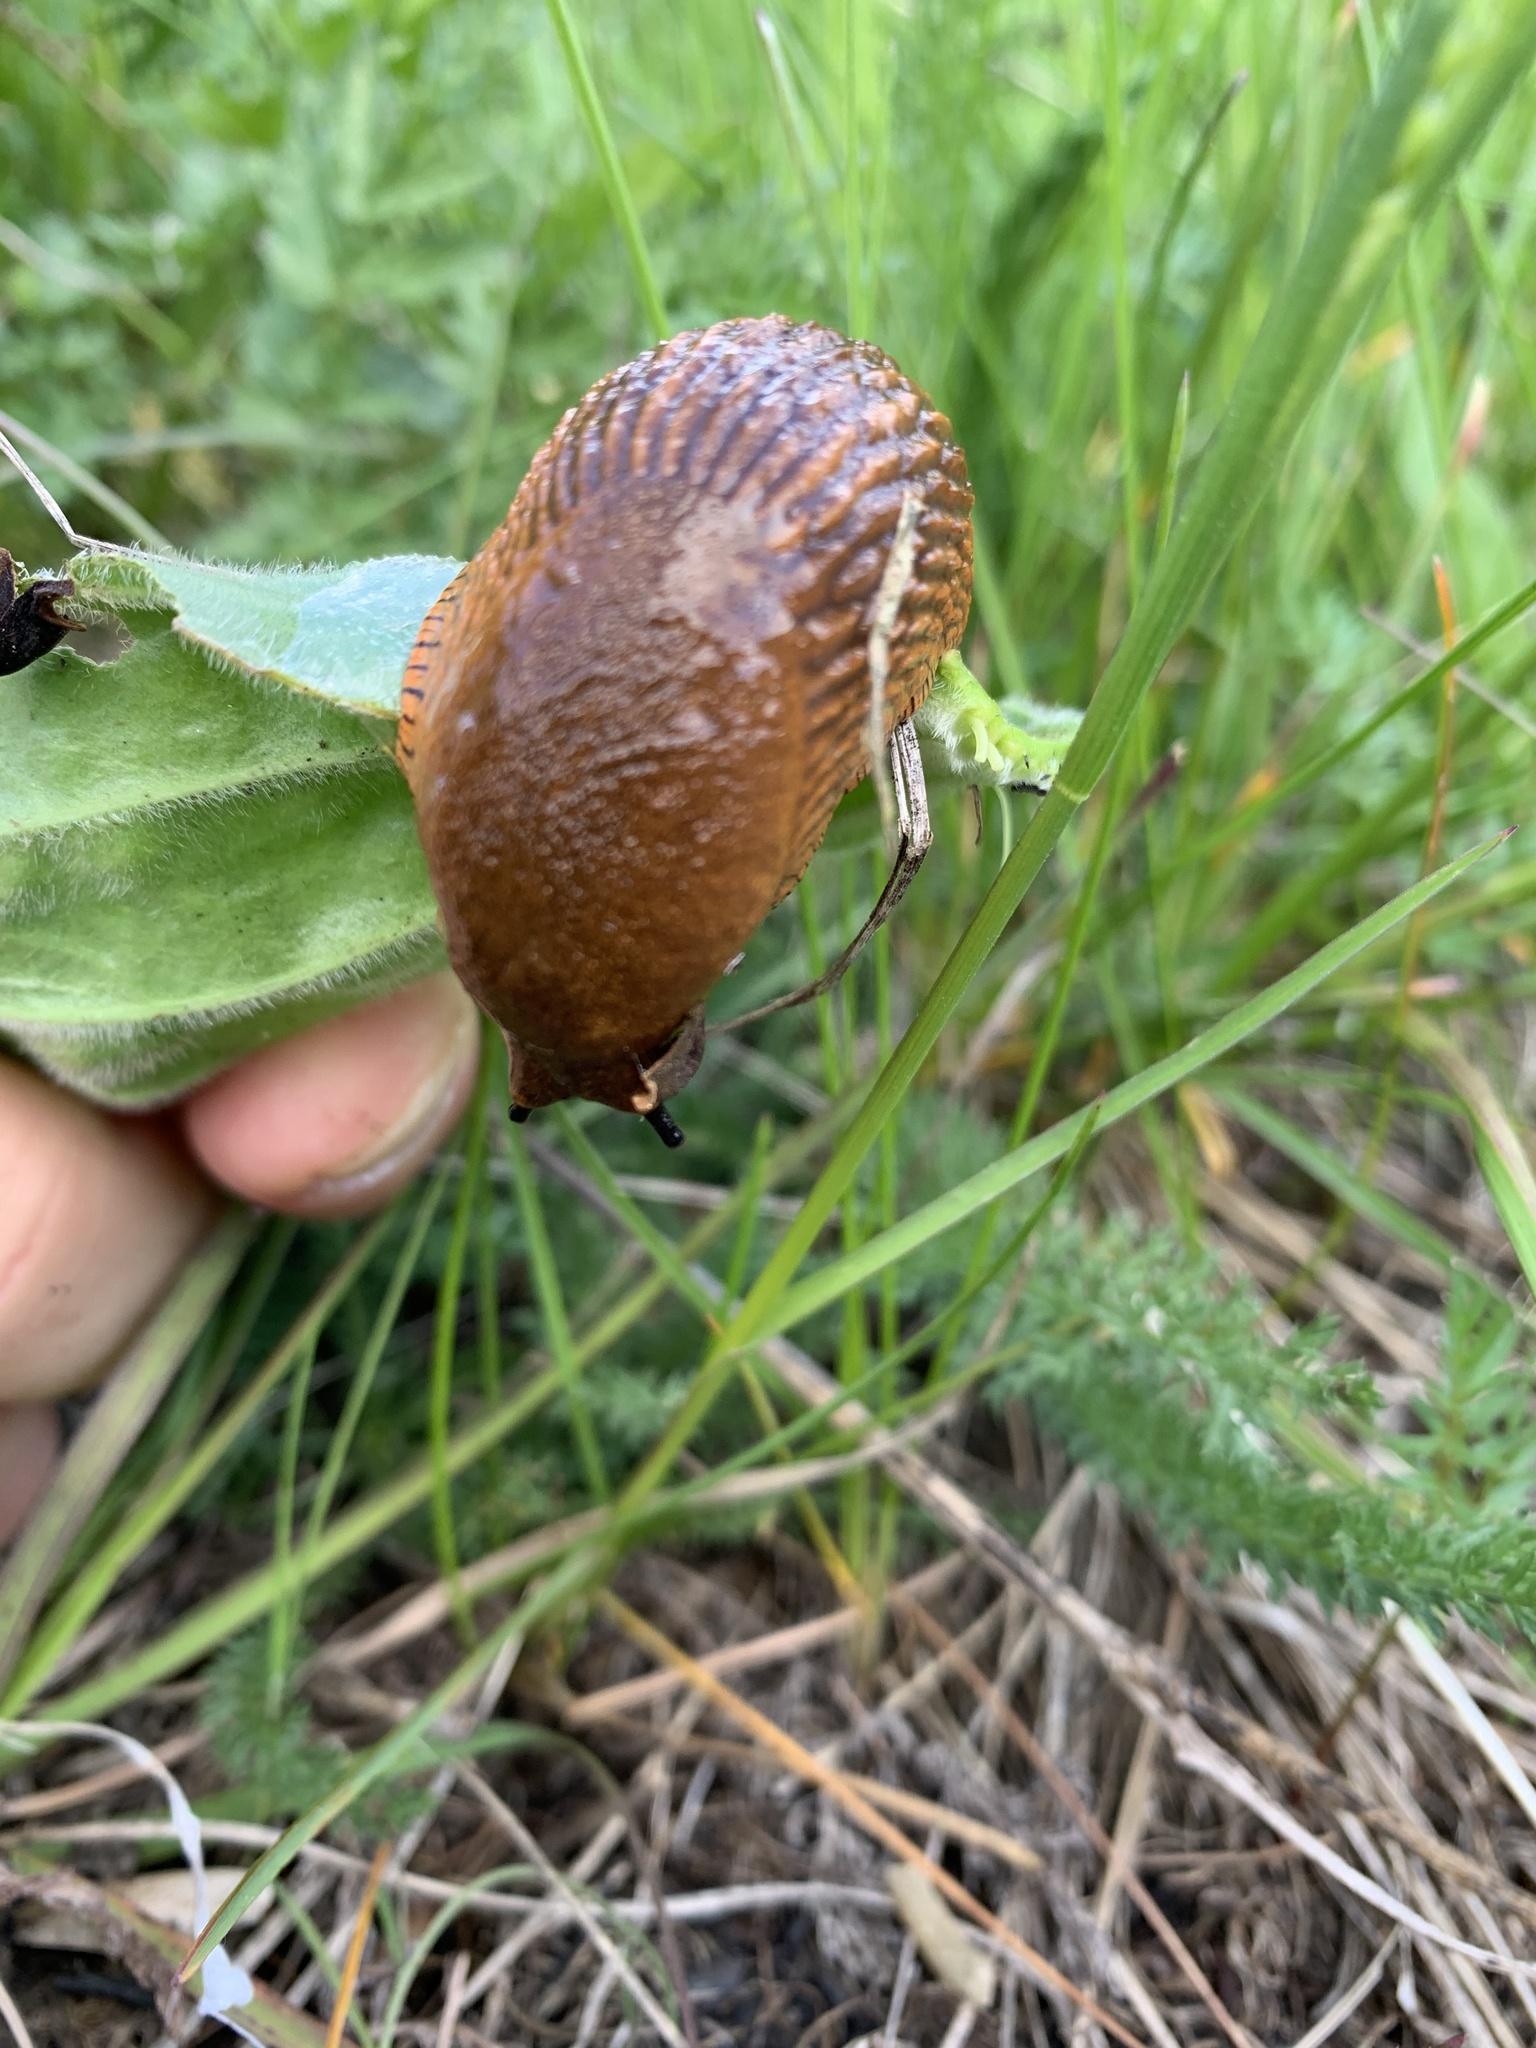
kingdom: Animalia
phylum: Mollusca
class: Gastropoda
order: Stylommatophora
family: Arionidae
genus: Arion
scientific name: Arion vulgaris
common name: Lusitanian slug
